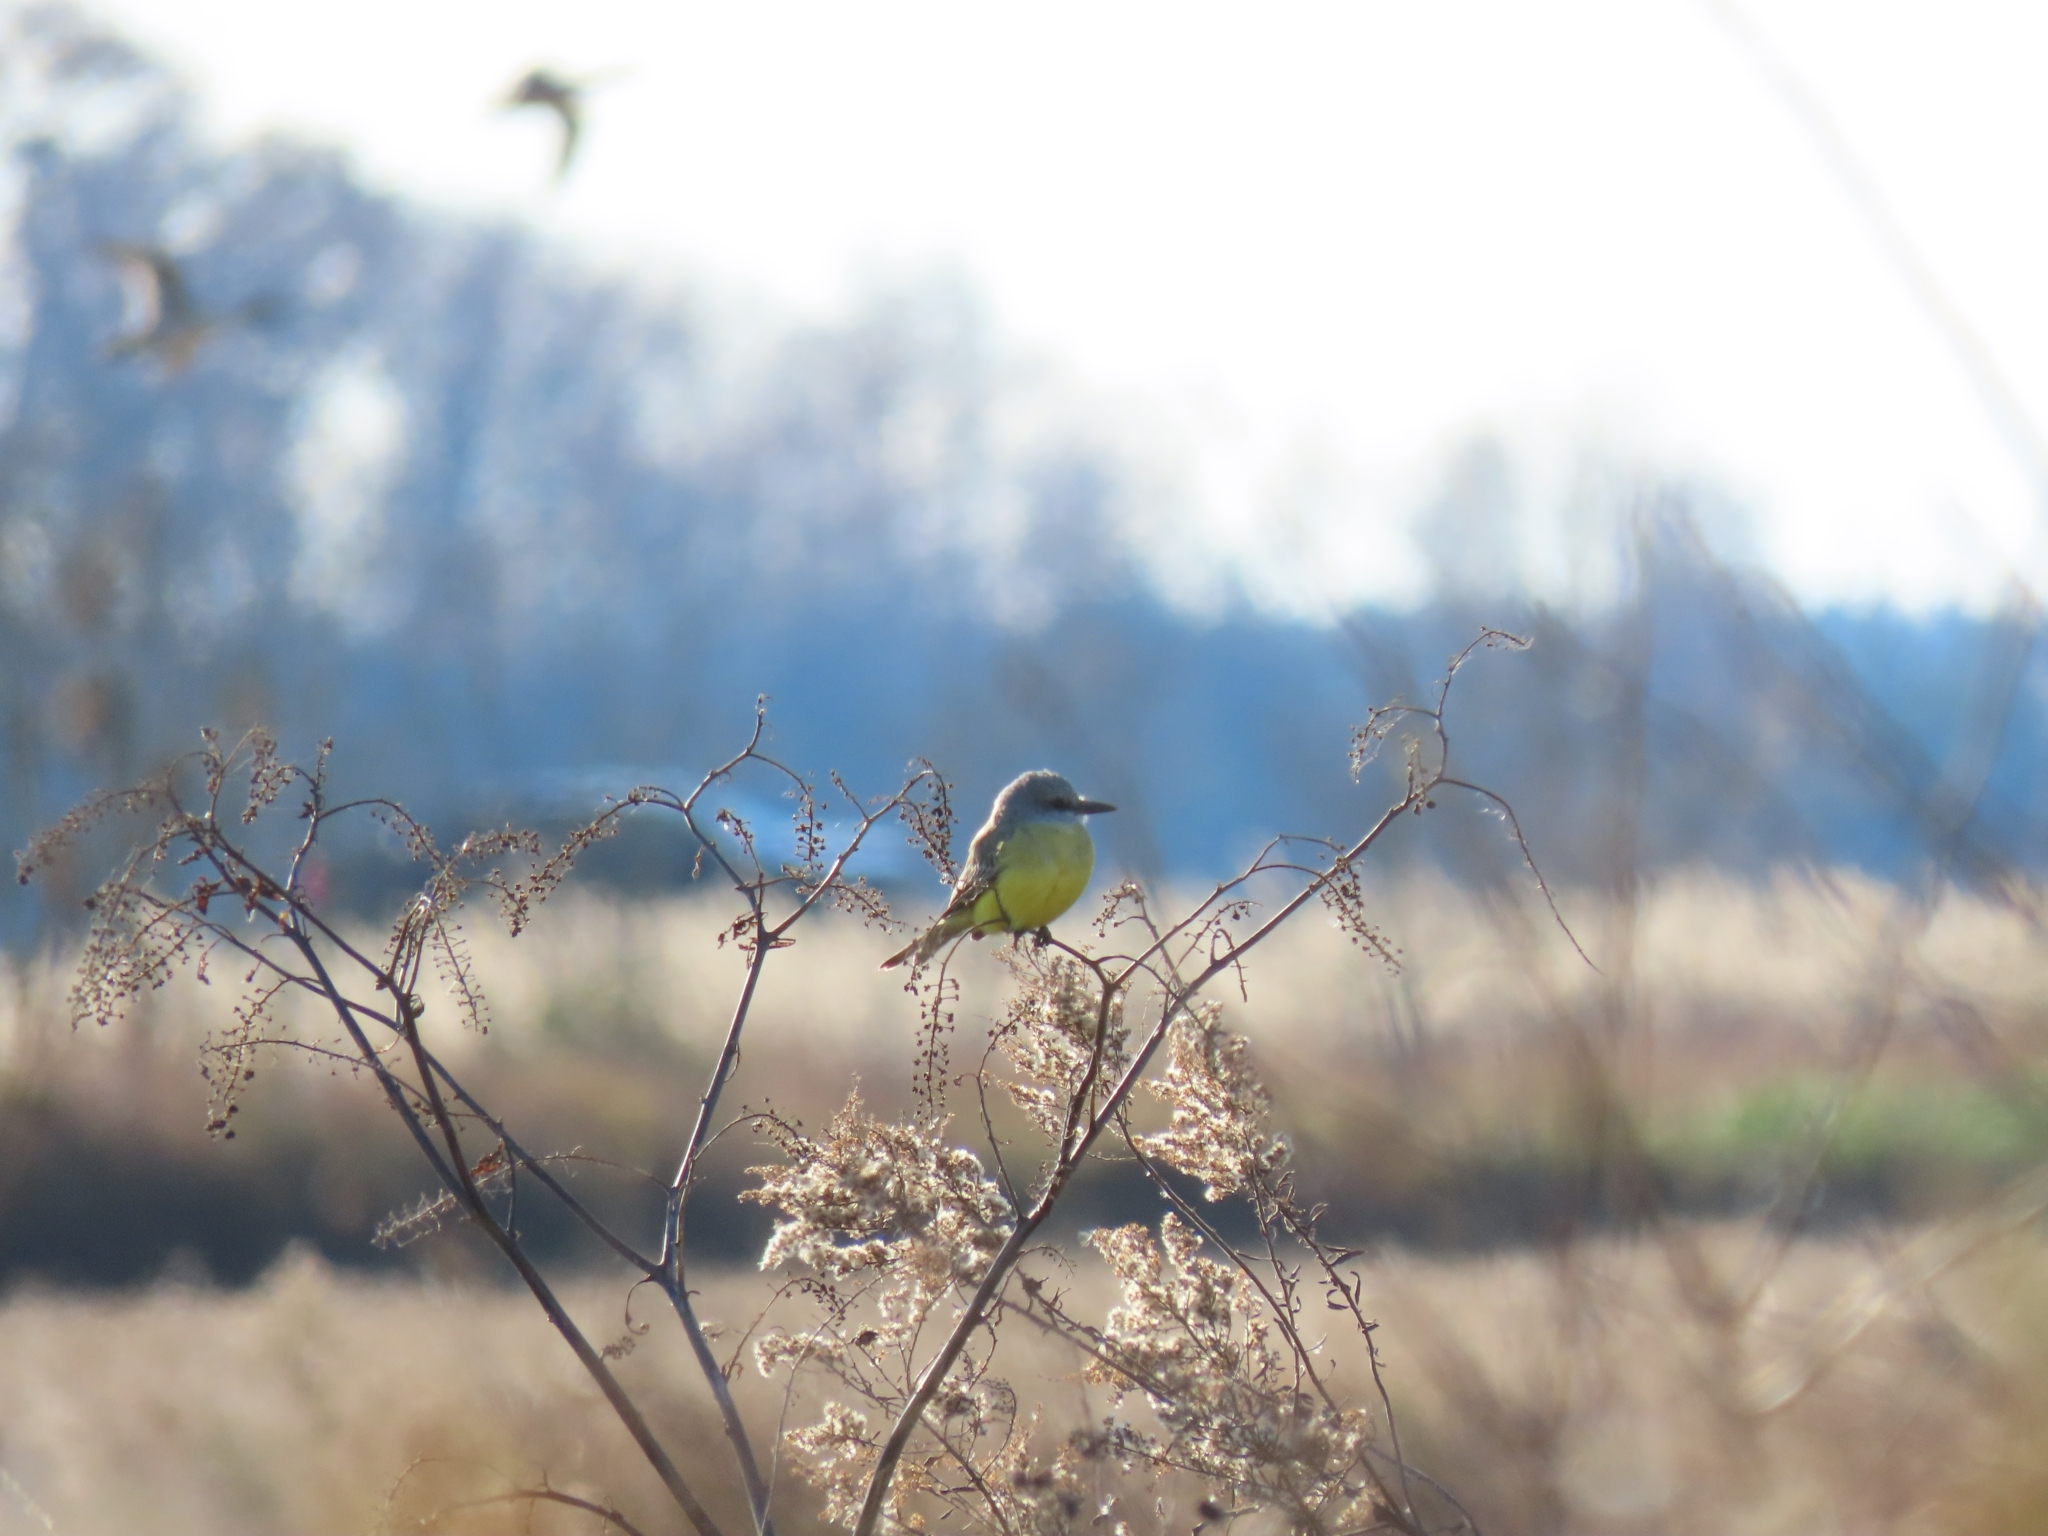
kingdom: Animalia
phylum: Chordata
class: Aves
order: Passeriformes
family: Tyrannidae
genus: Tyrannus
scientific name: Tyrannus melancholicus
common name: Tropical kingbird
